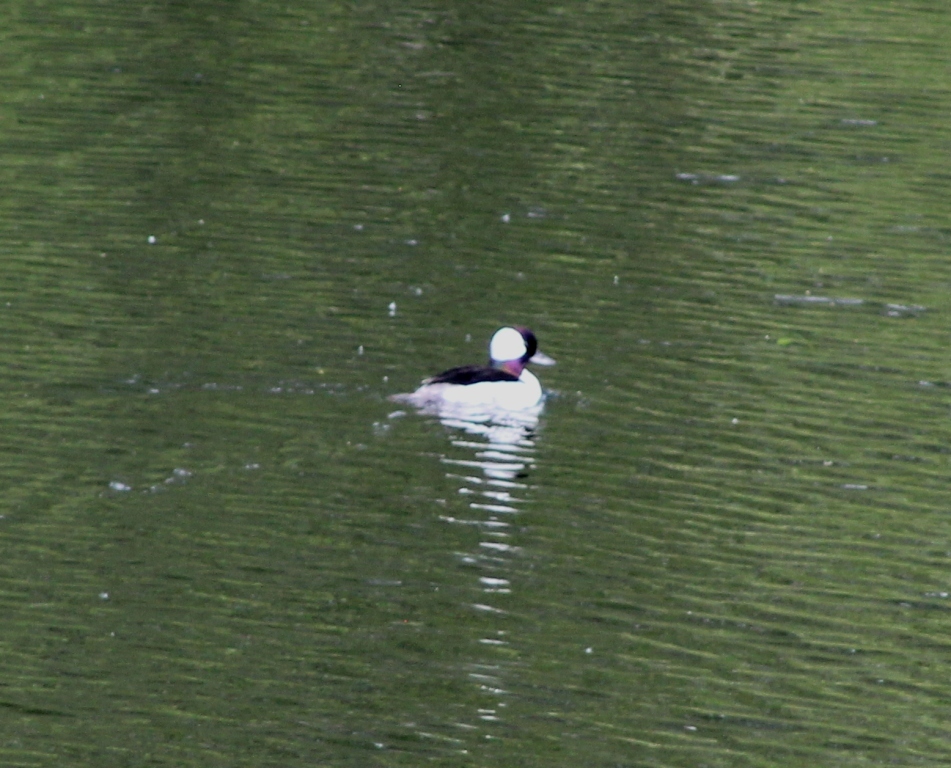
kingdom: Animalia
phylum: Chordata
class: Aves
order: Anseriformes
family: Anatidae
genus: Bucephala
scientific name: Bucephala albeola
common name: Bufflehead
